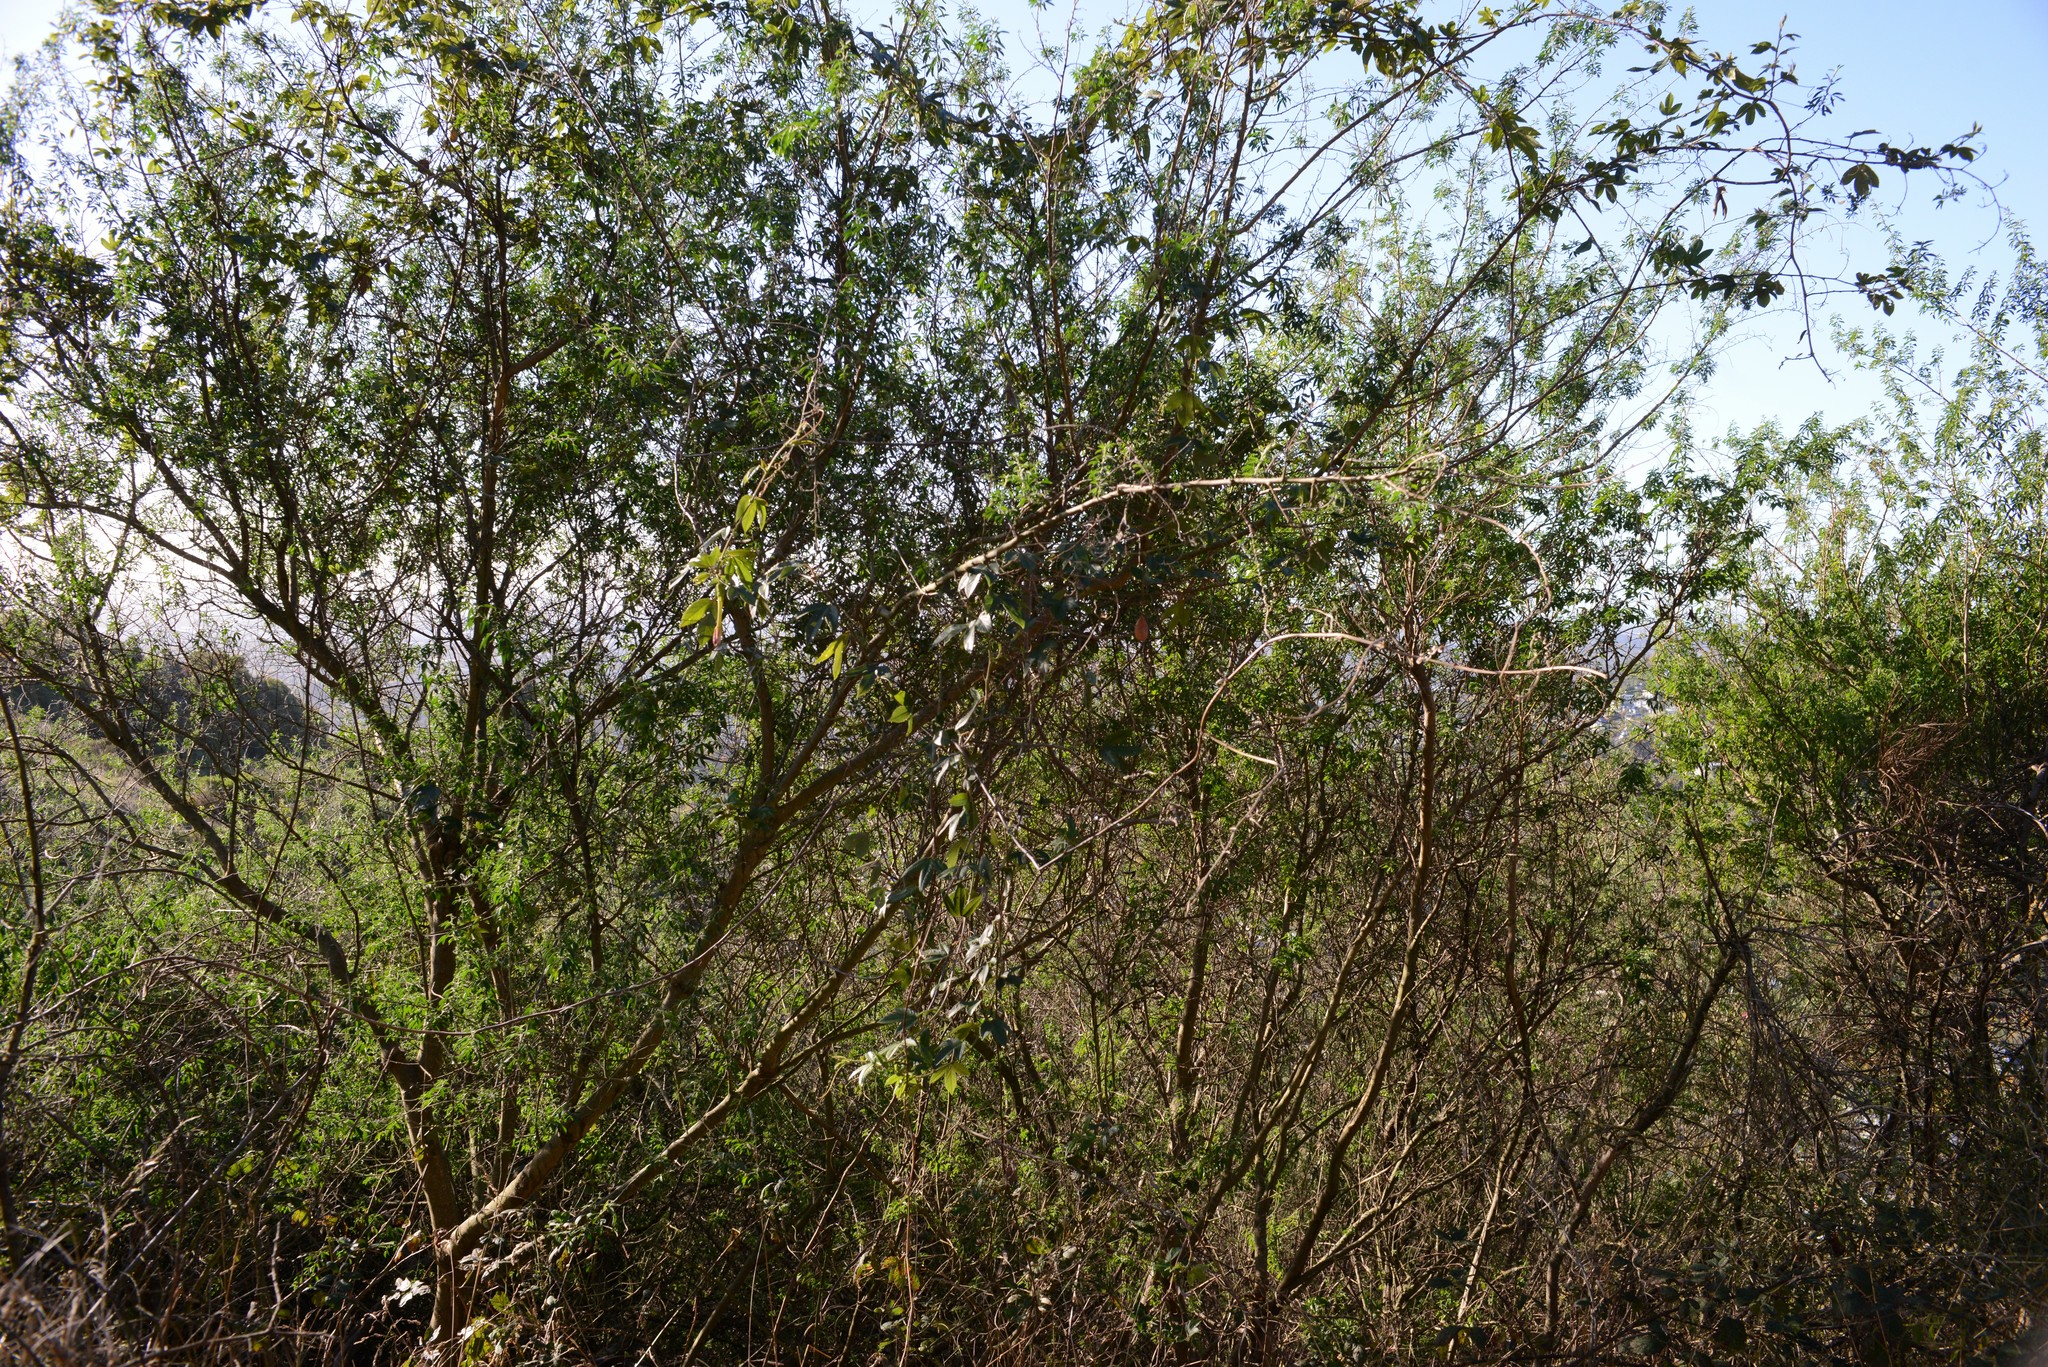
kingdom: Plantae
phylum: Tracheophyta
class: Magnoliopsida
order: Fabales
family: Fabaceae
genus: Chamaecytisus
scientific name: Chamaecytisus prolifer
